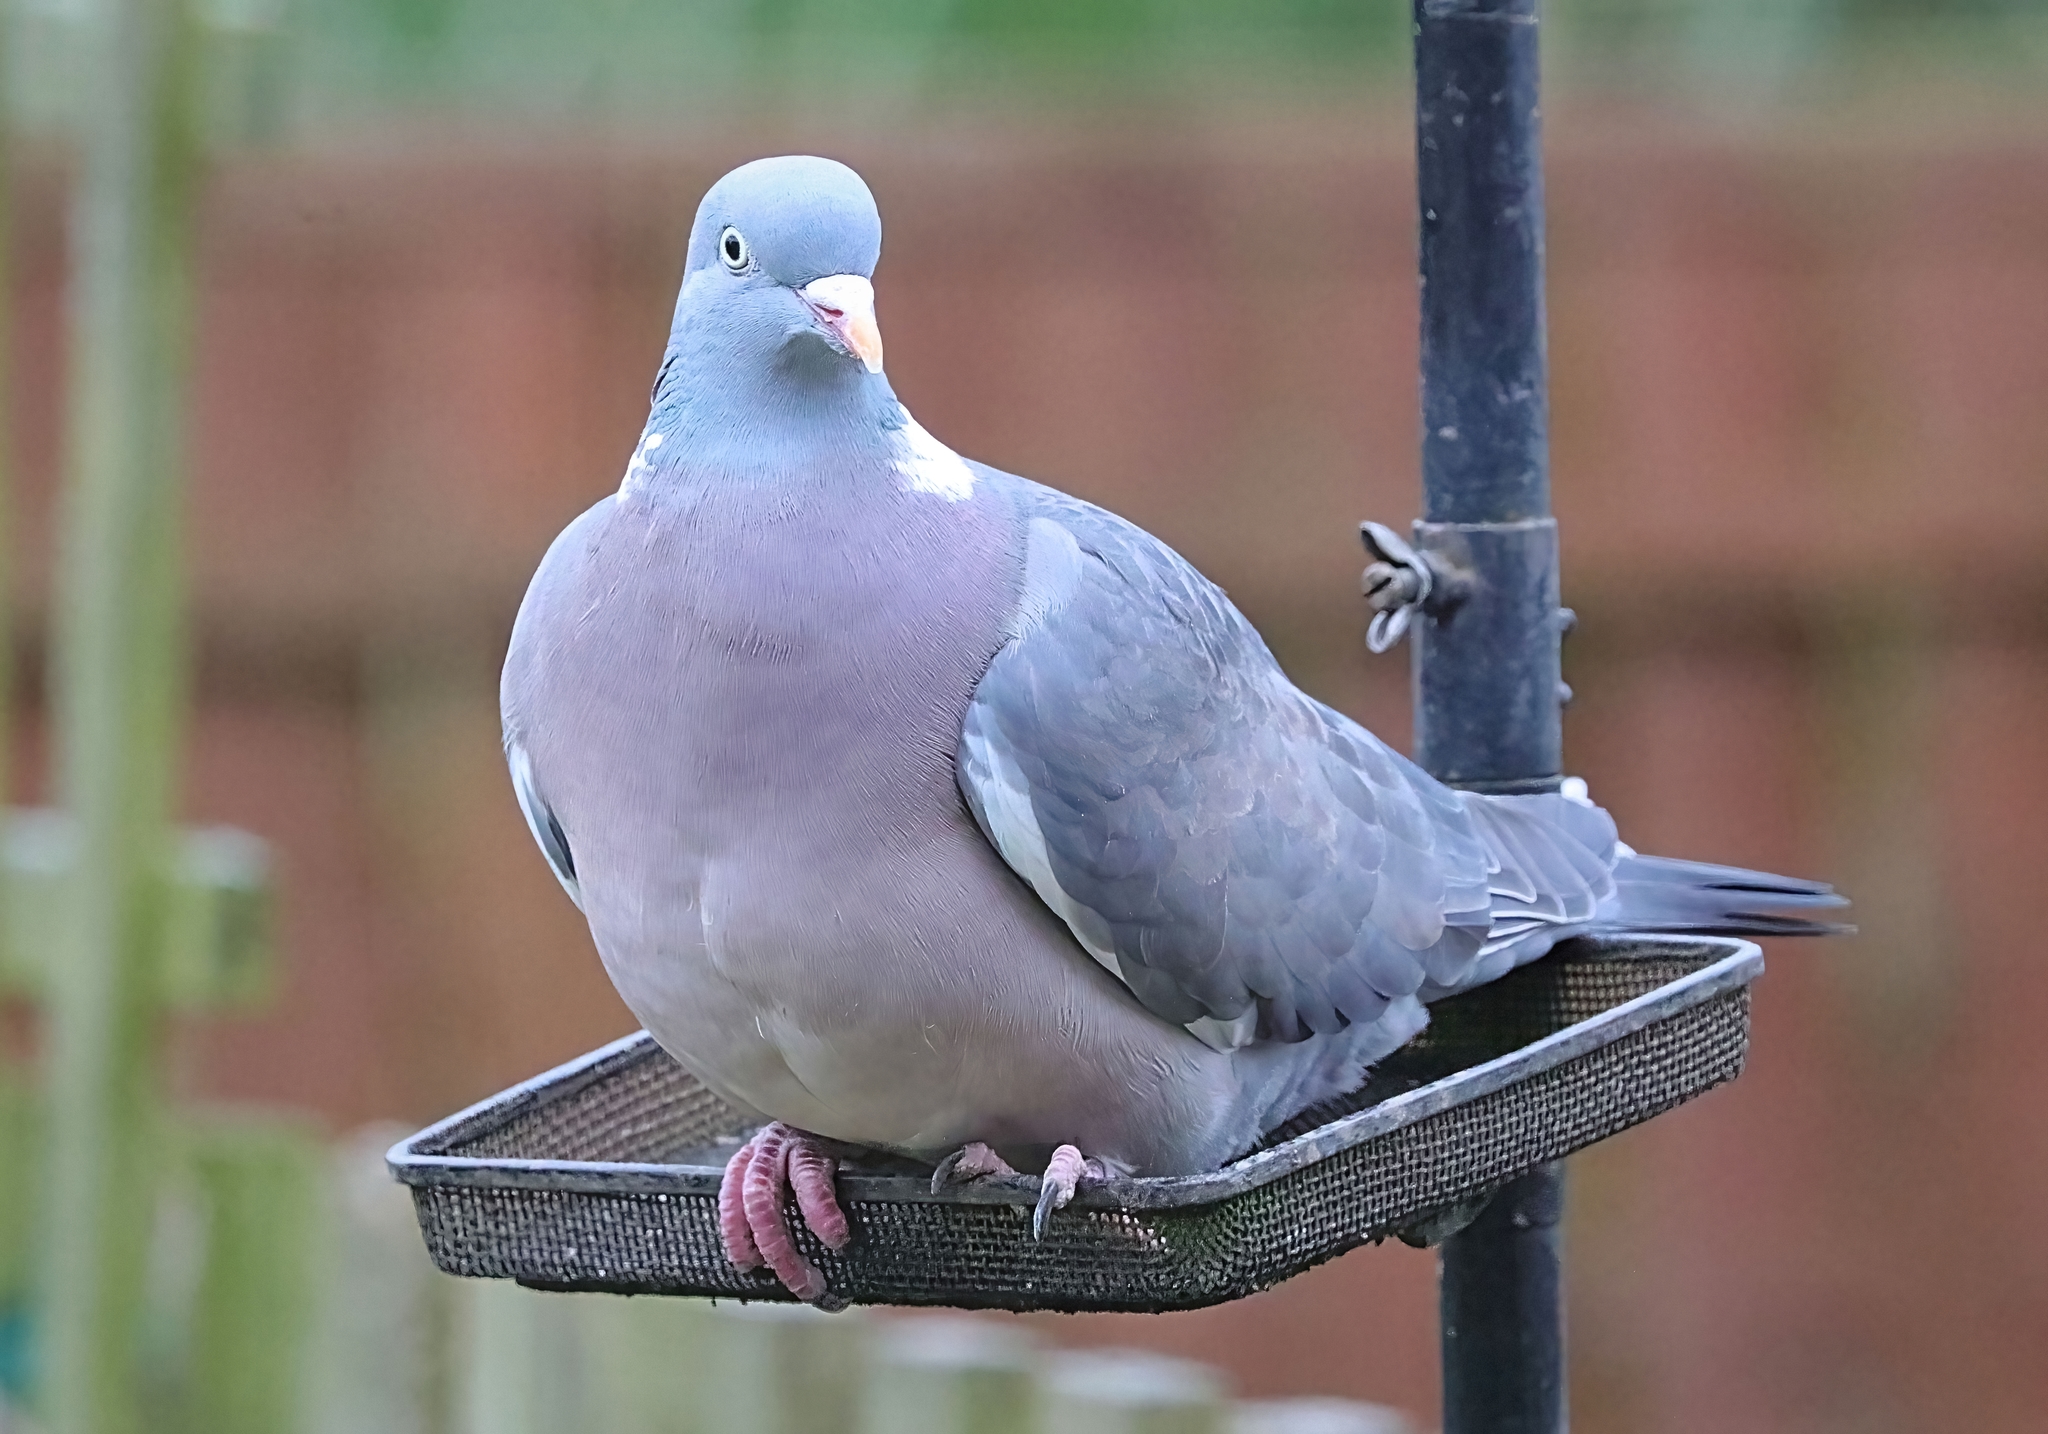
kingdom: Animalia
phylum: Chordata
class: Aves
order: Columbiformes
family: Columbidae
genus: Columba
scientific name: Columba palumbus
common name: Common wood pigeon
